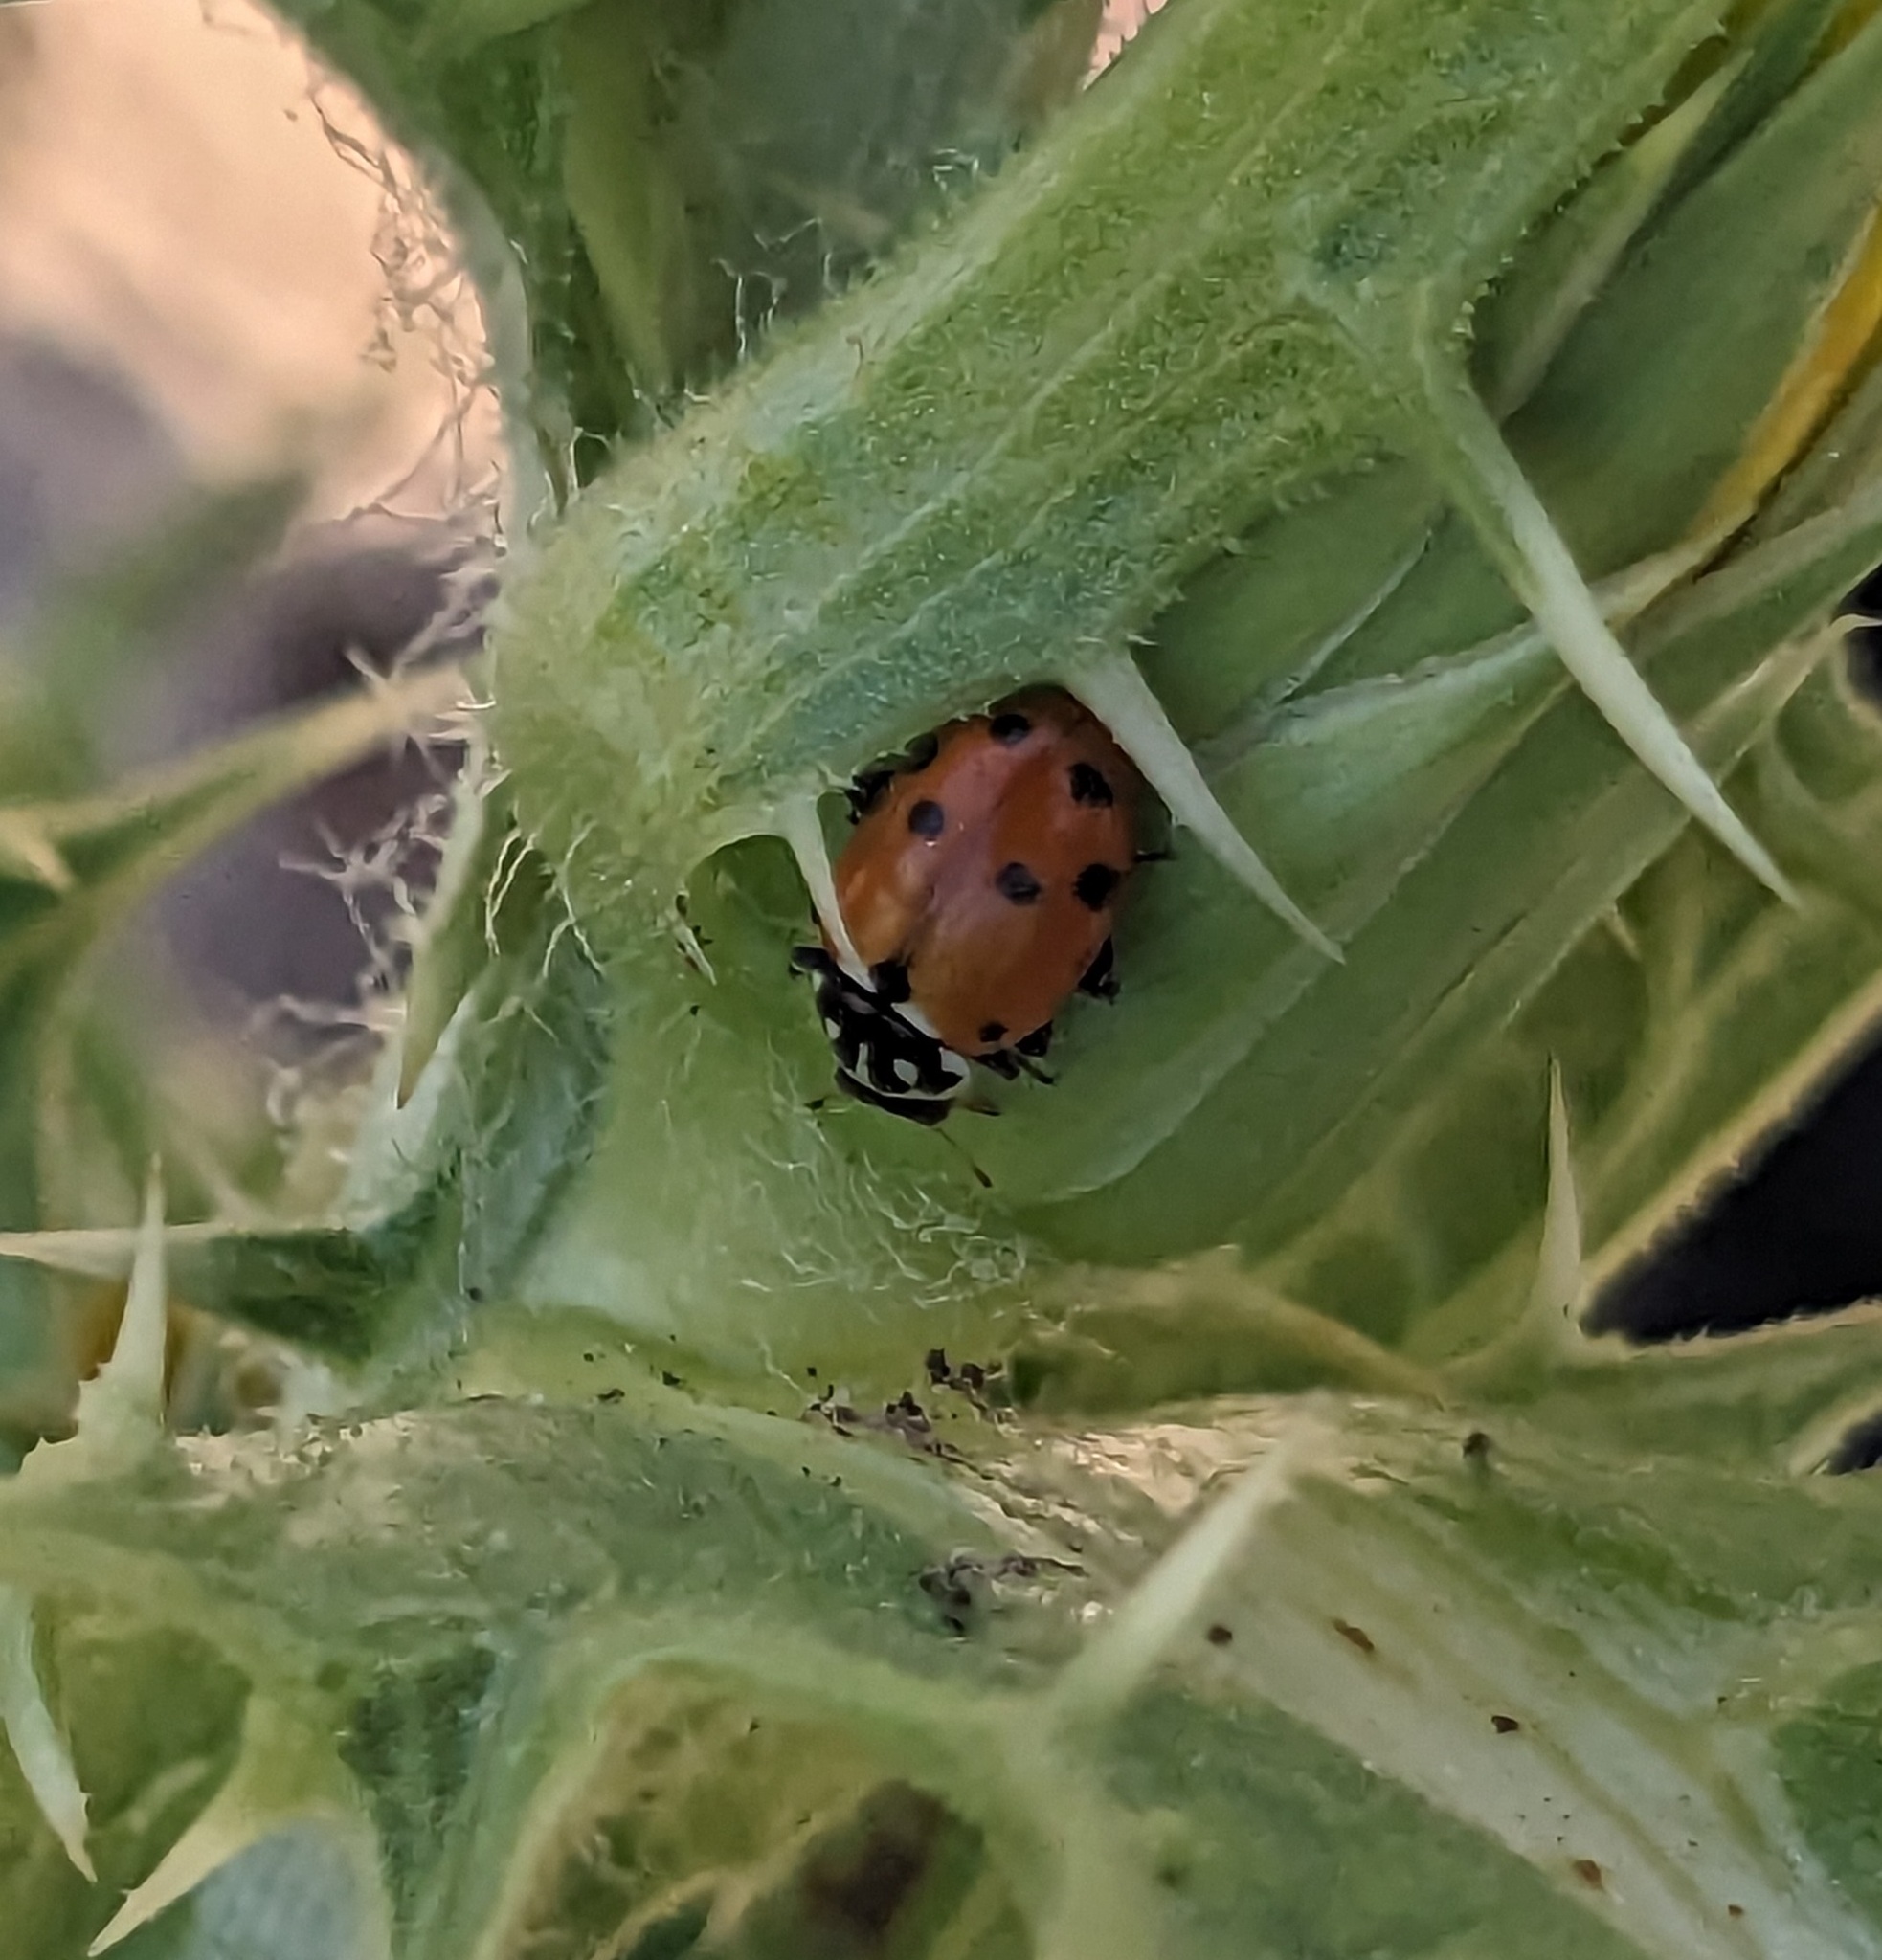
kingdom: Animalia
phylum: Arthropoda
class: Insecta
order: Coleoptera
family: Coccinellidae
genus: Hippodamia
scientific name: Hippodamia variegata
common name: Ladybird beetle
